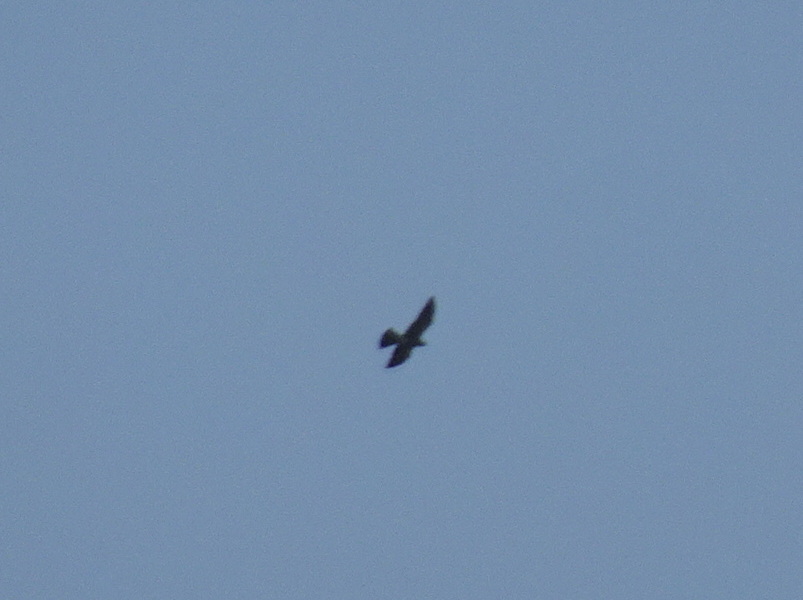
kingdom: Animalia
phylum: Chordata
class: Aves
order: Accipitriformes
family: Accipitridae
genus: Ictinia
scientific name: Ictinia mississippiensis
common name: Mississippi kite
